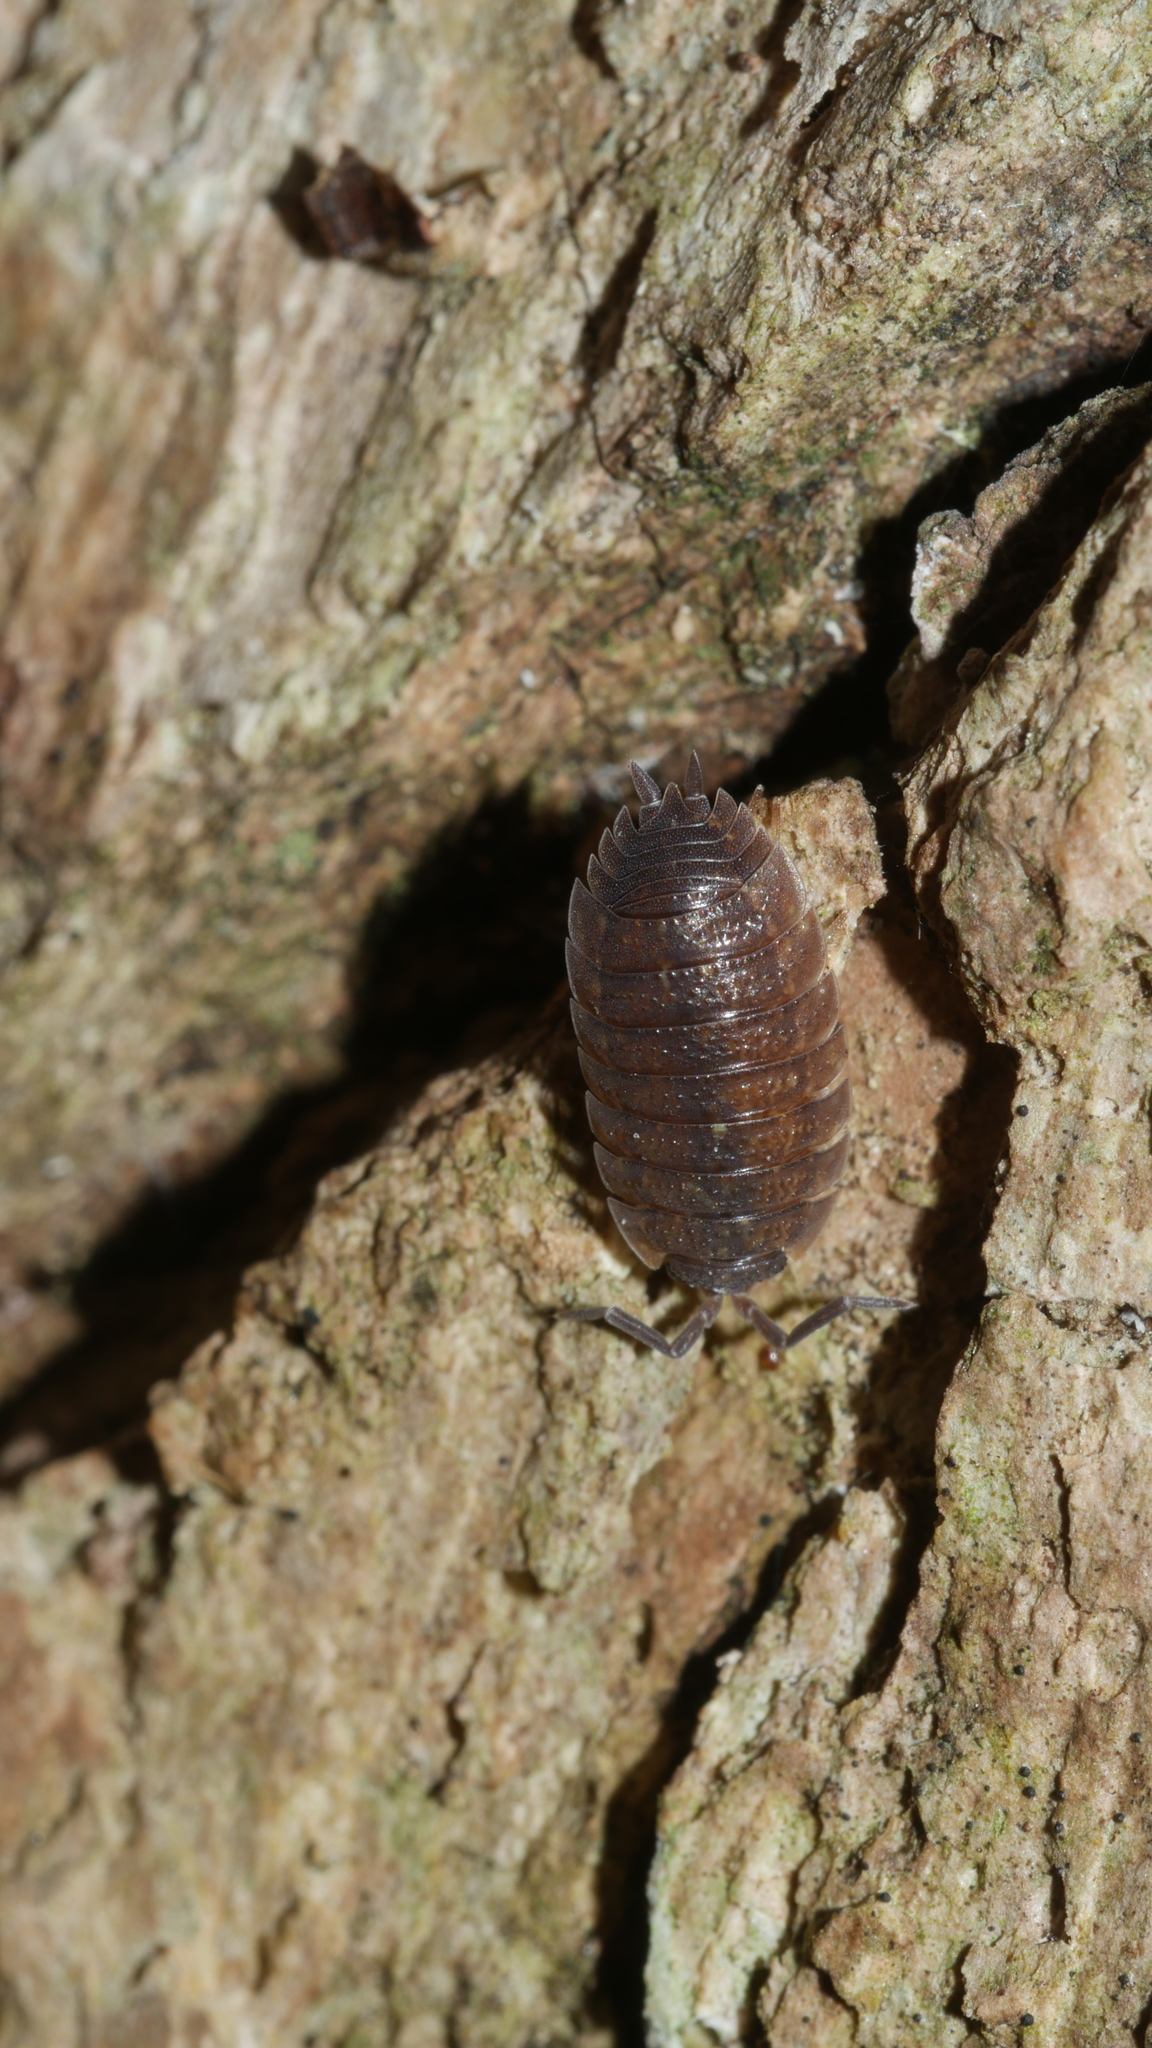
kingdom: Animalia
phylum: Arthropoda
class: Malacostraca
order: Isopoda
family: Porcellionidae
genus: Porcellio
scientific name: Porcellio scaber
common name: Common rough woodlouse
